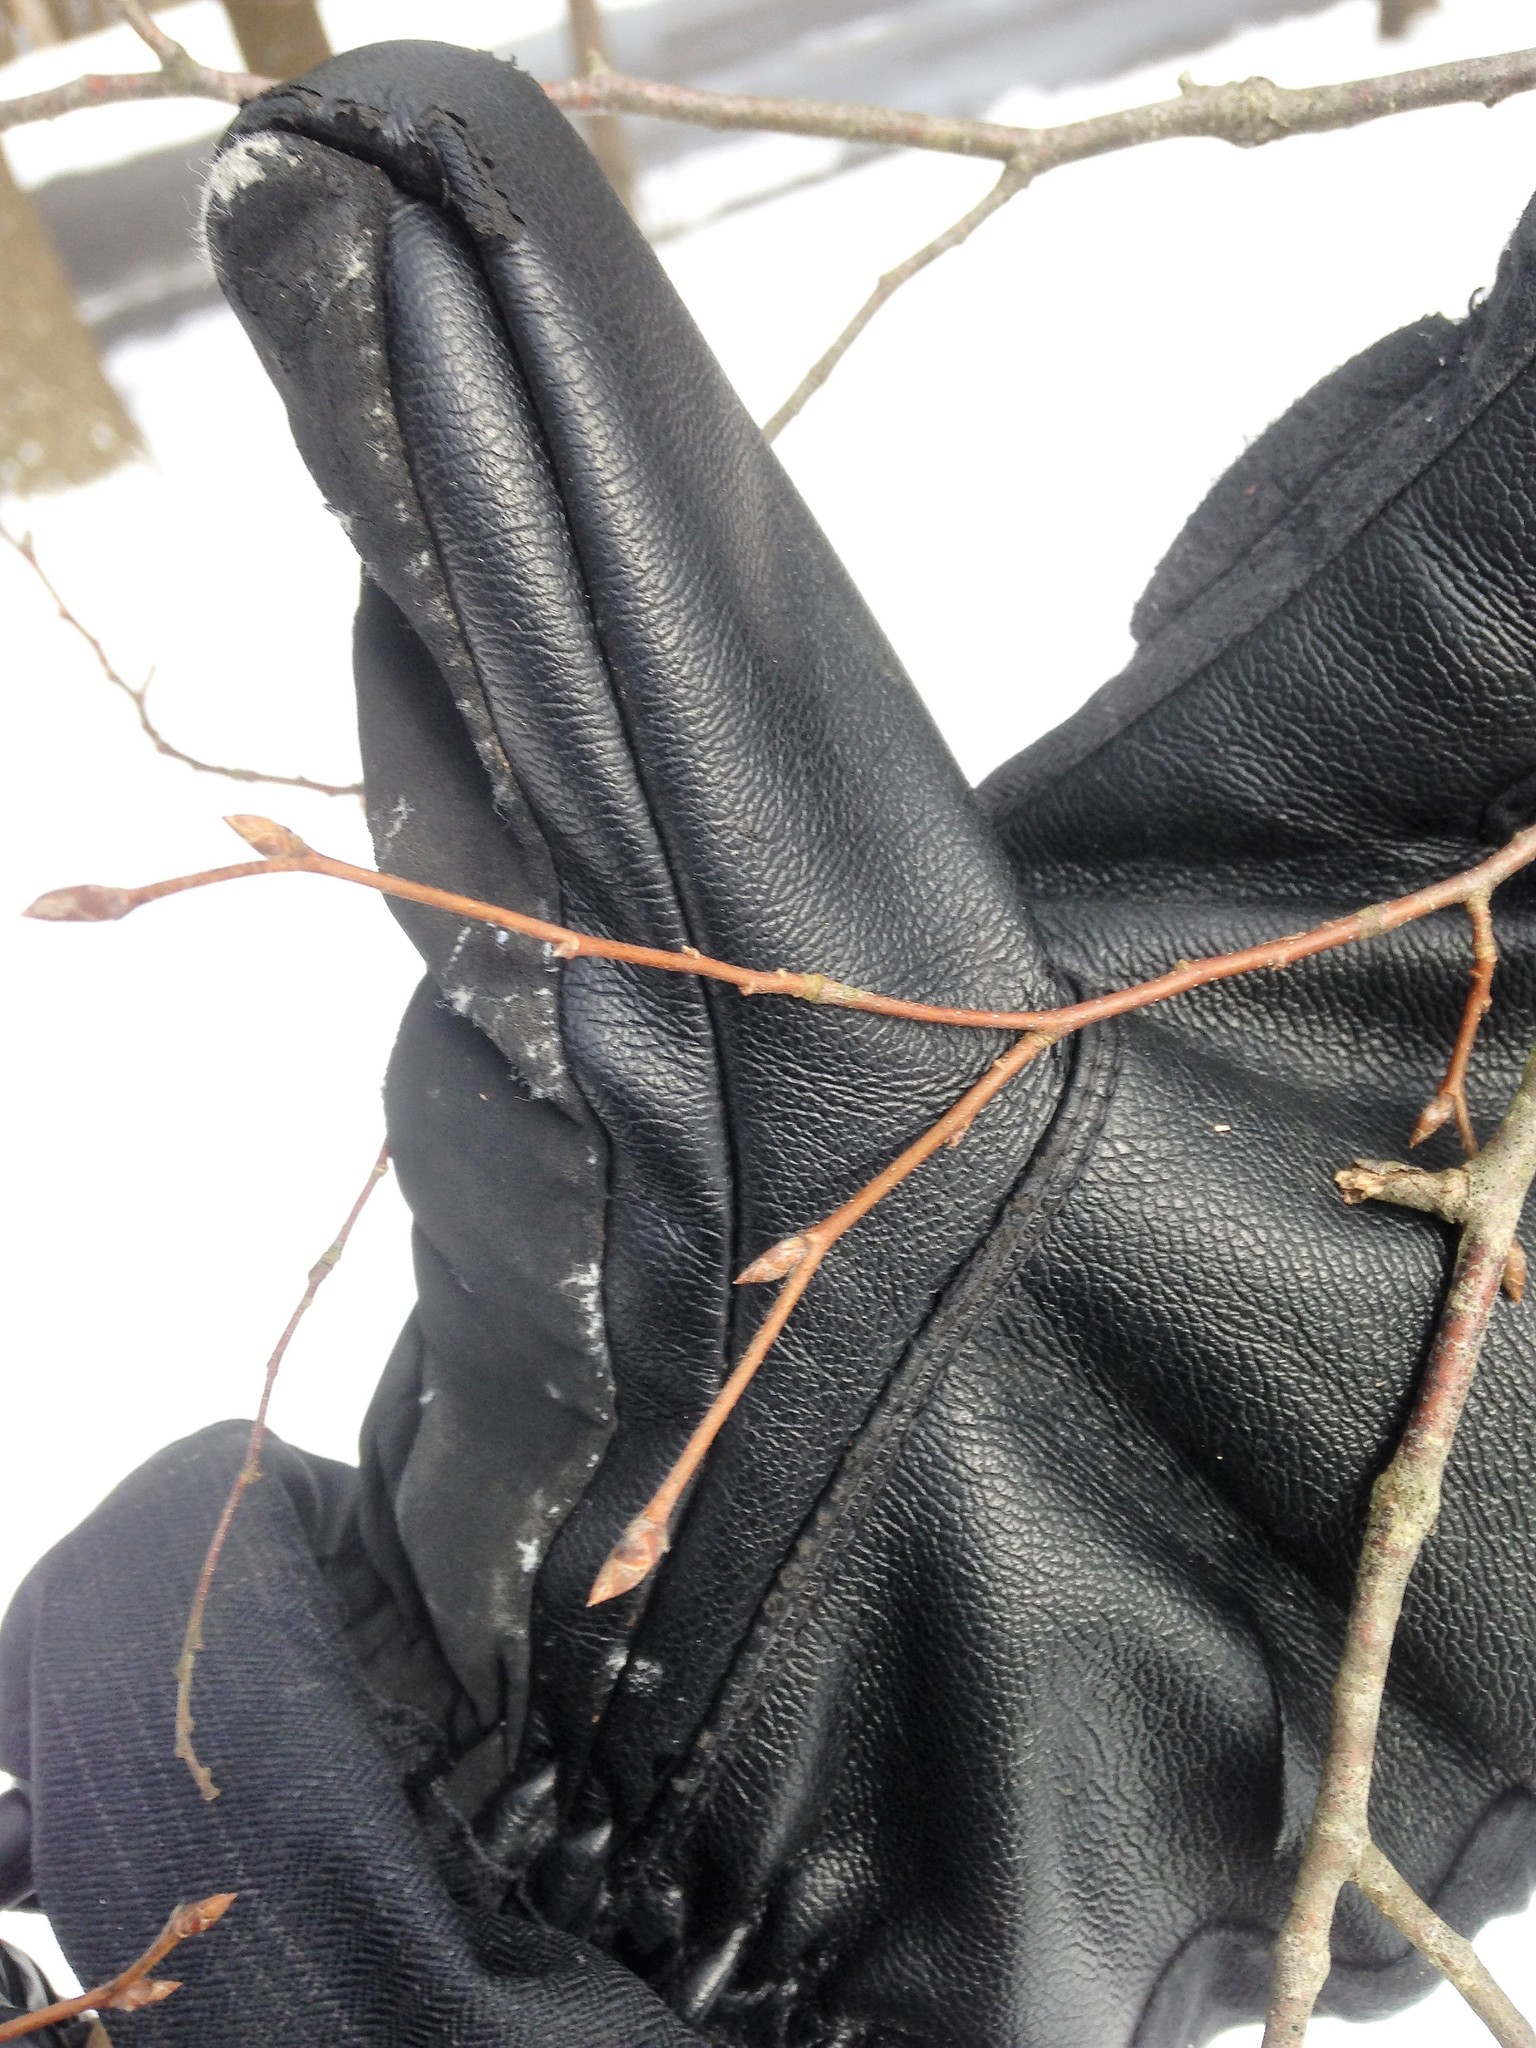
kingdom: Plantae
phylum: Tracheophyta
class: Magnoliopsida
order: Fagales
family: Betulaceae
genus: Ostrya
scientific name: Ostrya virginiana
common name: Ironwood
